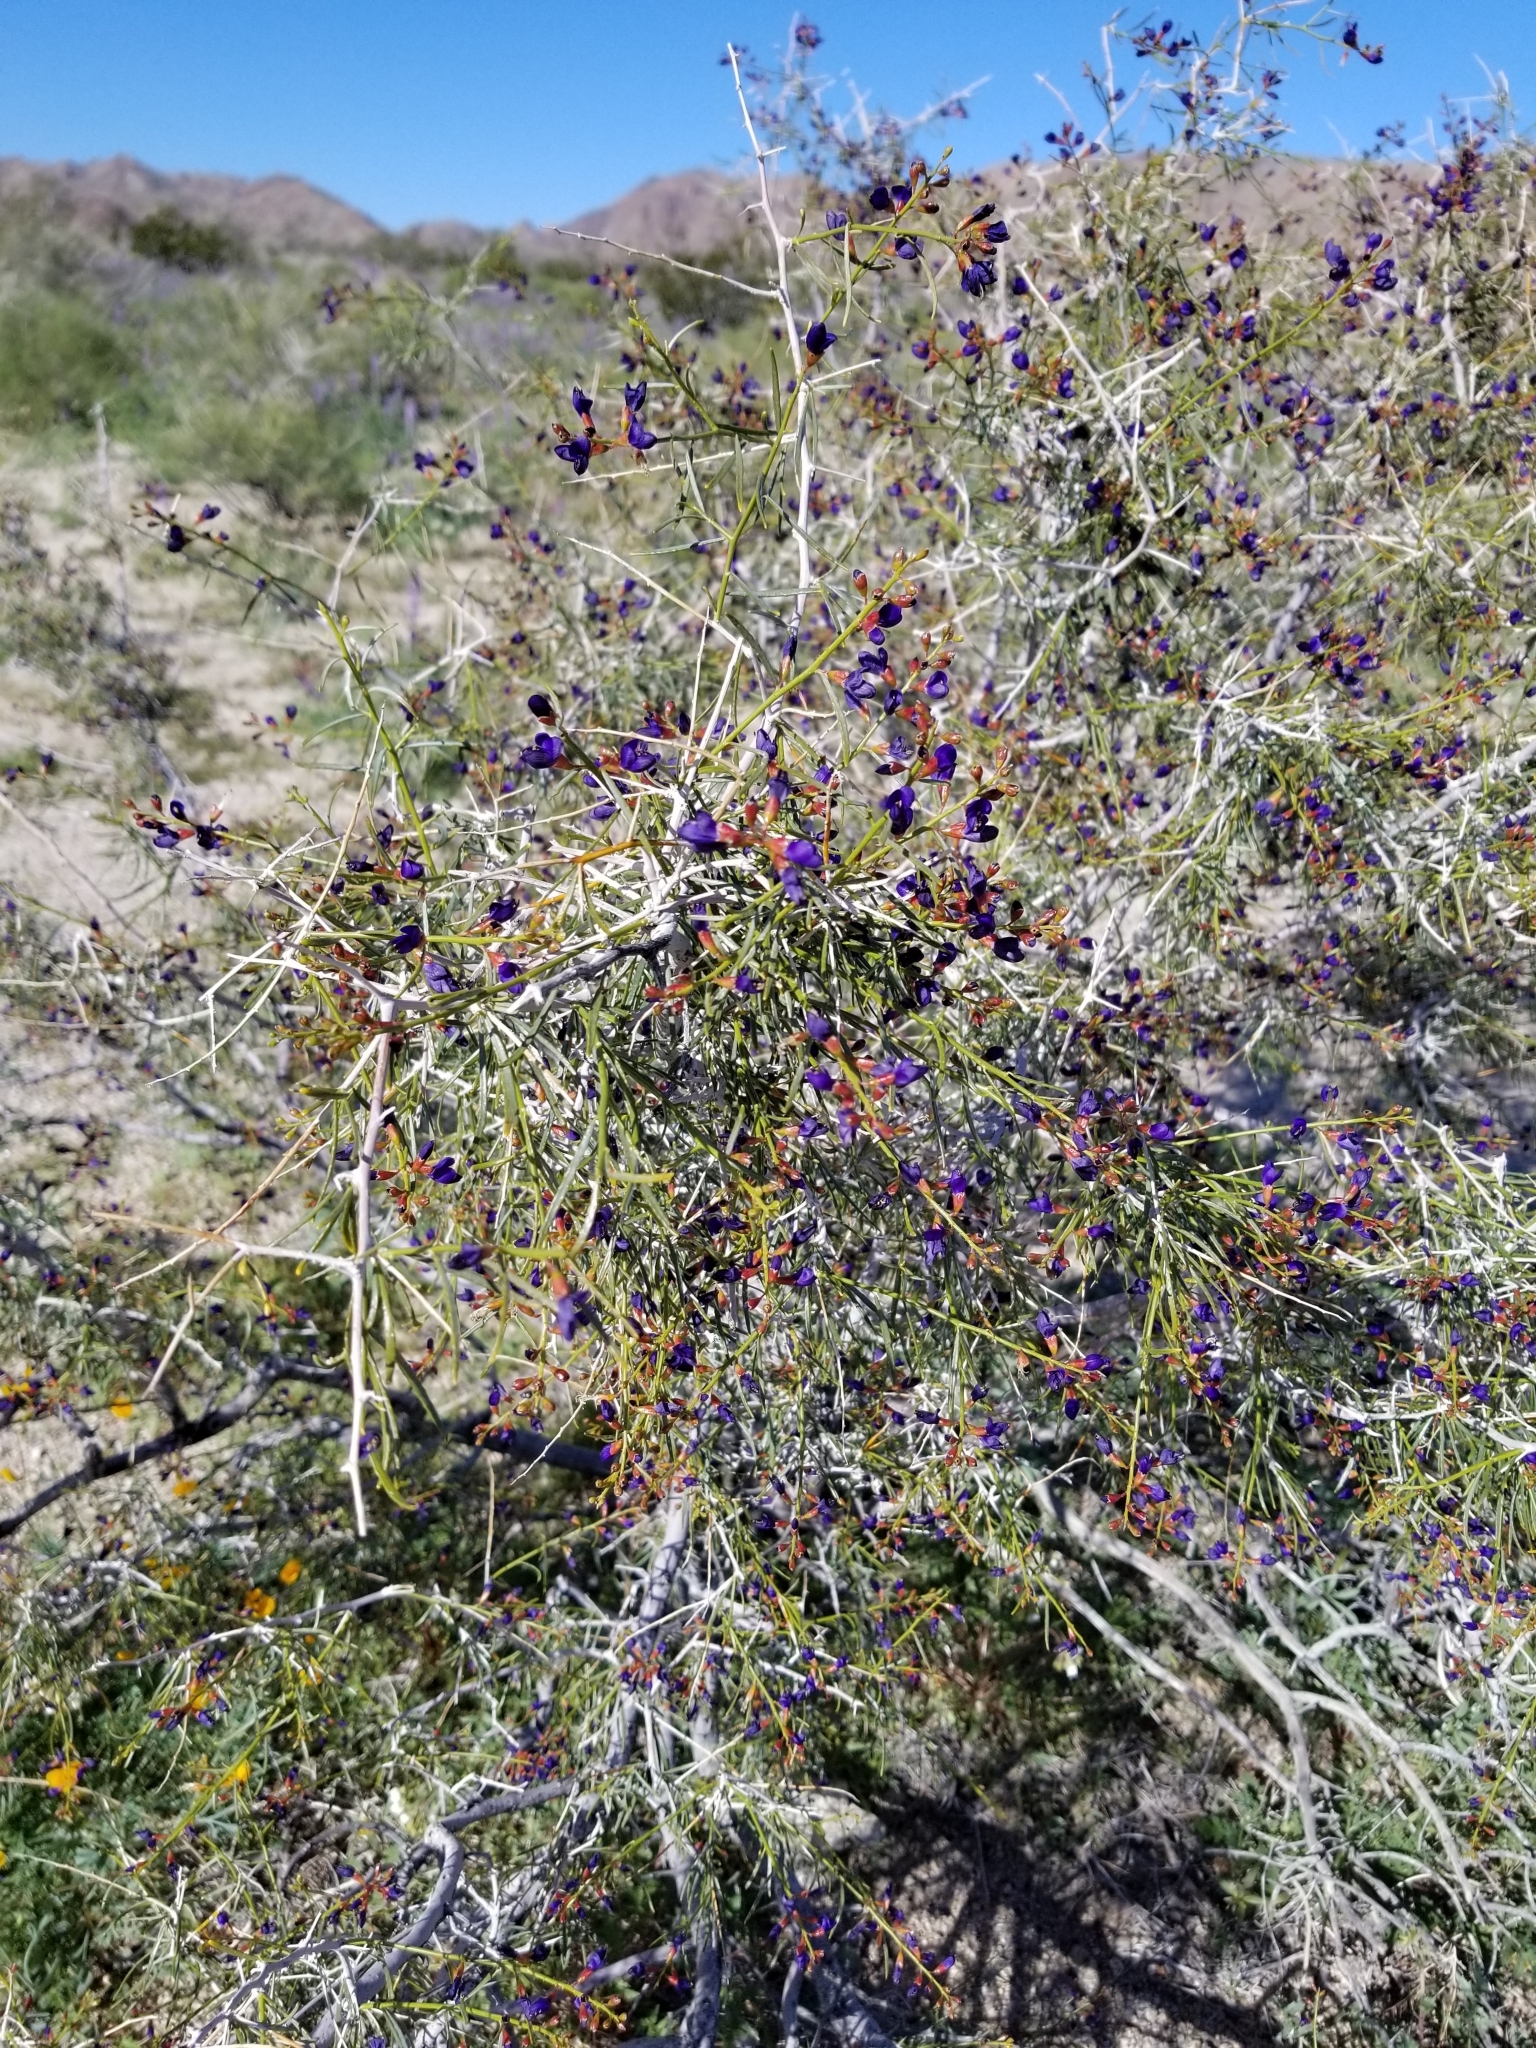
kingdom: Plantae
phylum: Tracheophyta
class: Magnoliopsida
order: Fabales
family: Fabaceae
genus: Psorothamnus
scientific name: Psorothamnus schottii
